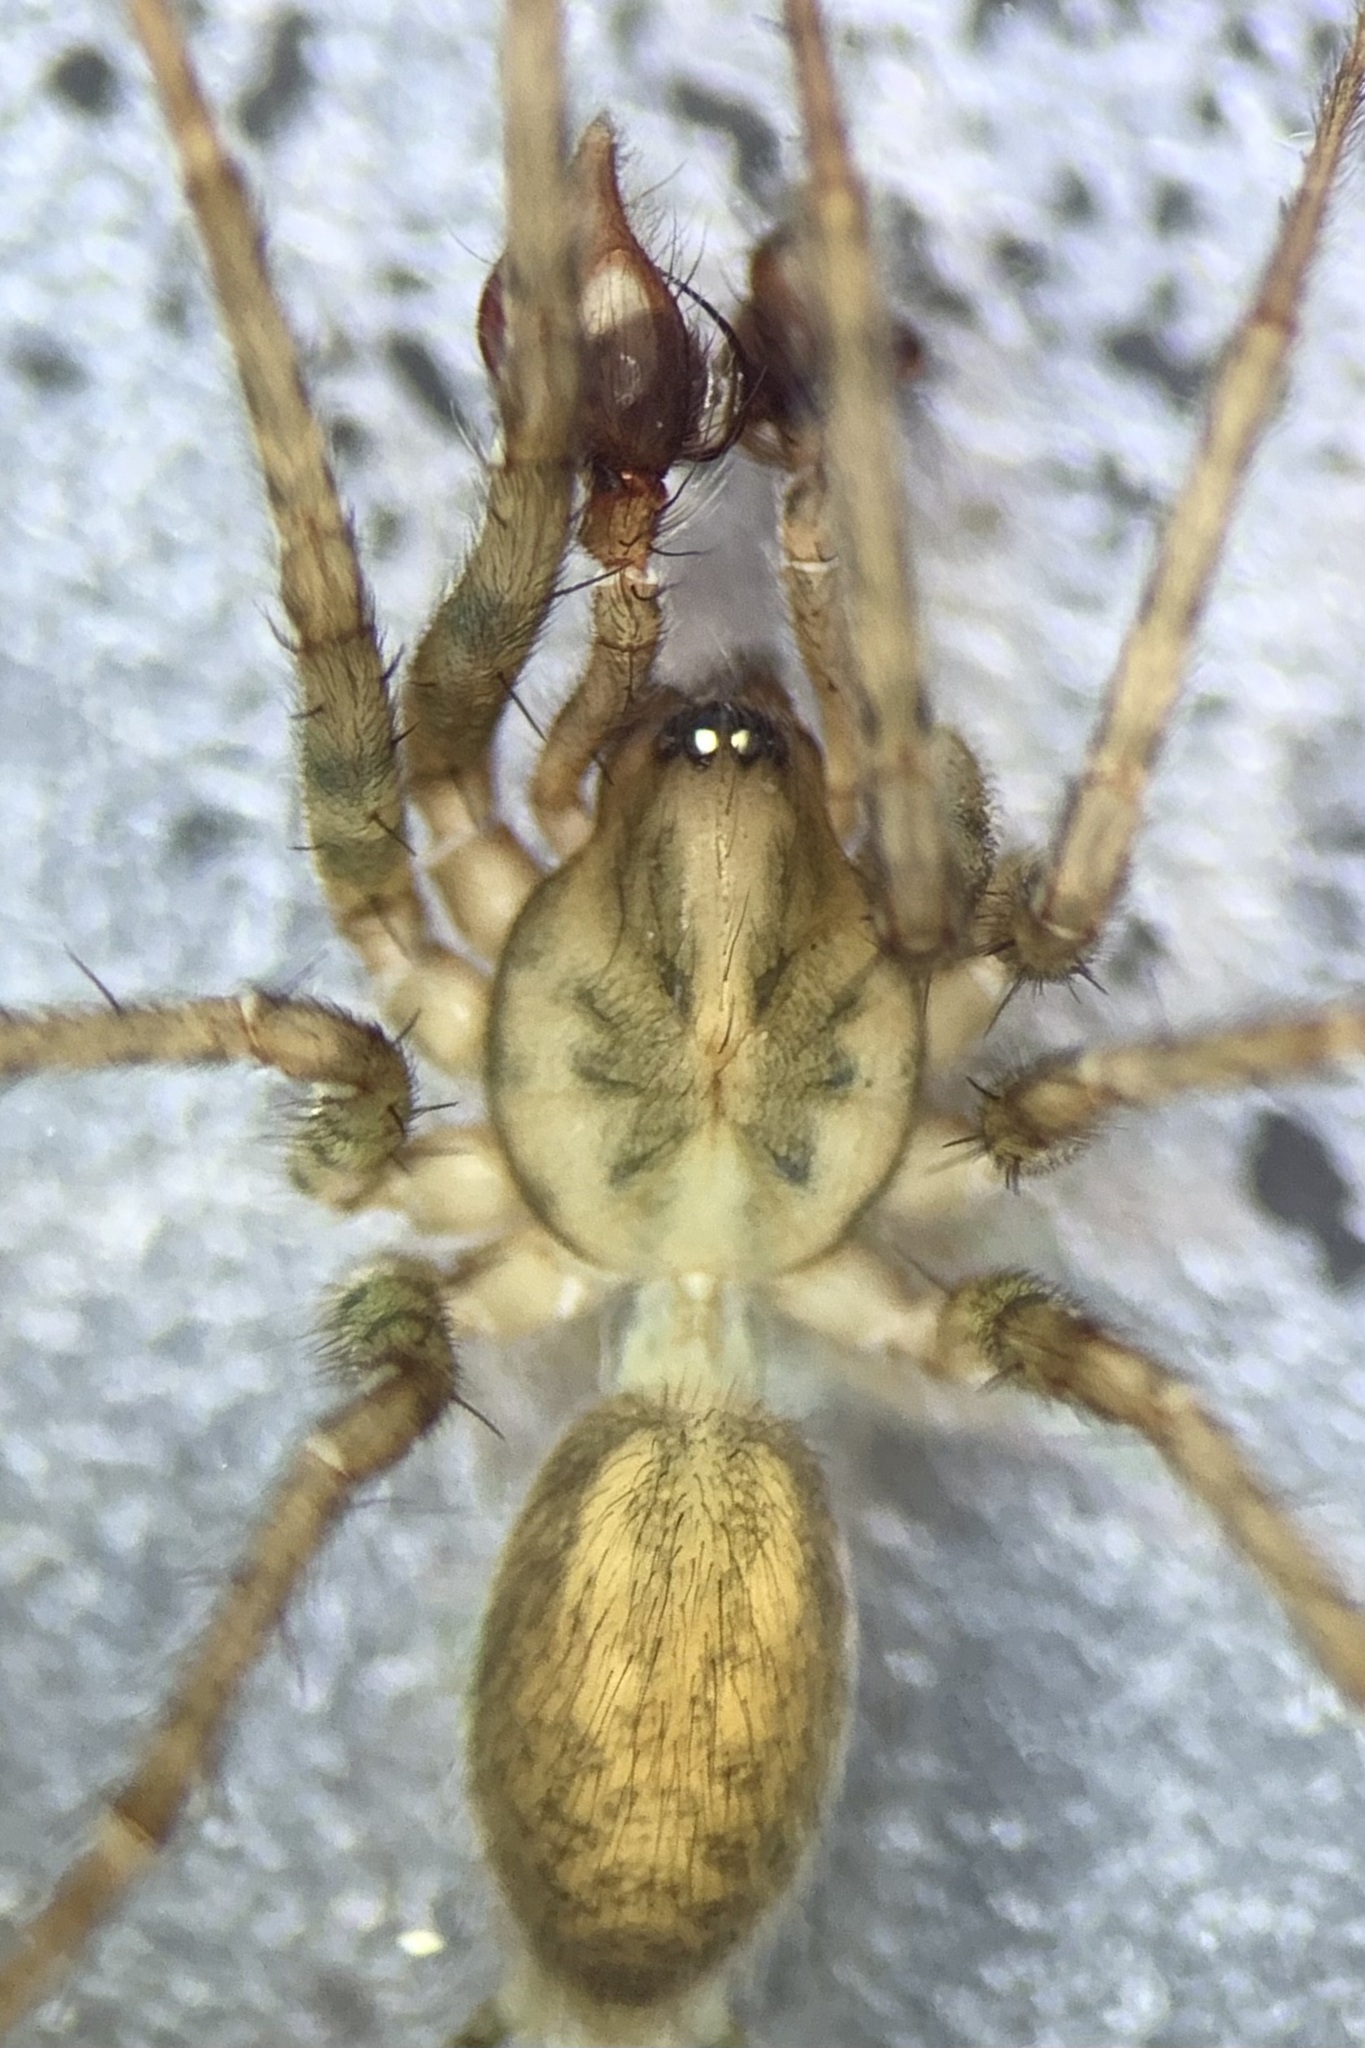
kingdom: Animalia
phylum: Arthropoda
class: Arachnida
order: Araneae
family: Agelenidae
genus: Tegenaria
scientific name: Tegenaria silvestris
